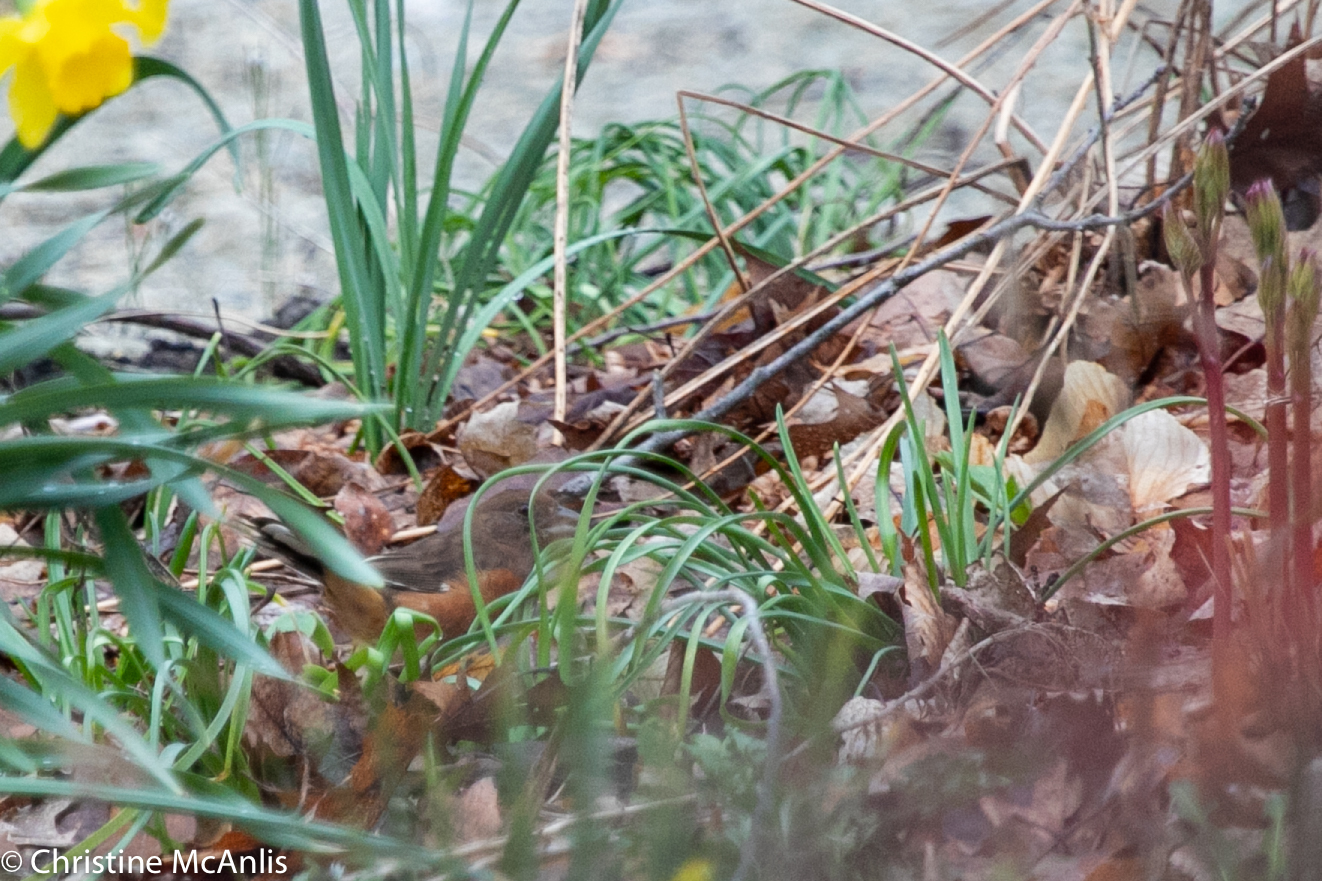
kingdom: Animalia
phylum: Chordata
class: Aves
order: Passeriformes
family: Passerellidae
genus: Pipilo
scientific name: Pipilo erythrophthalmus
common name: Eastern towhee
